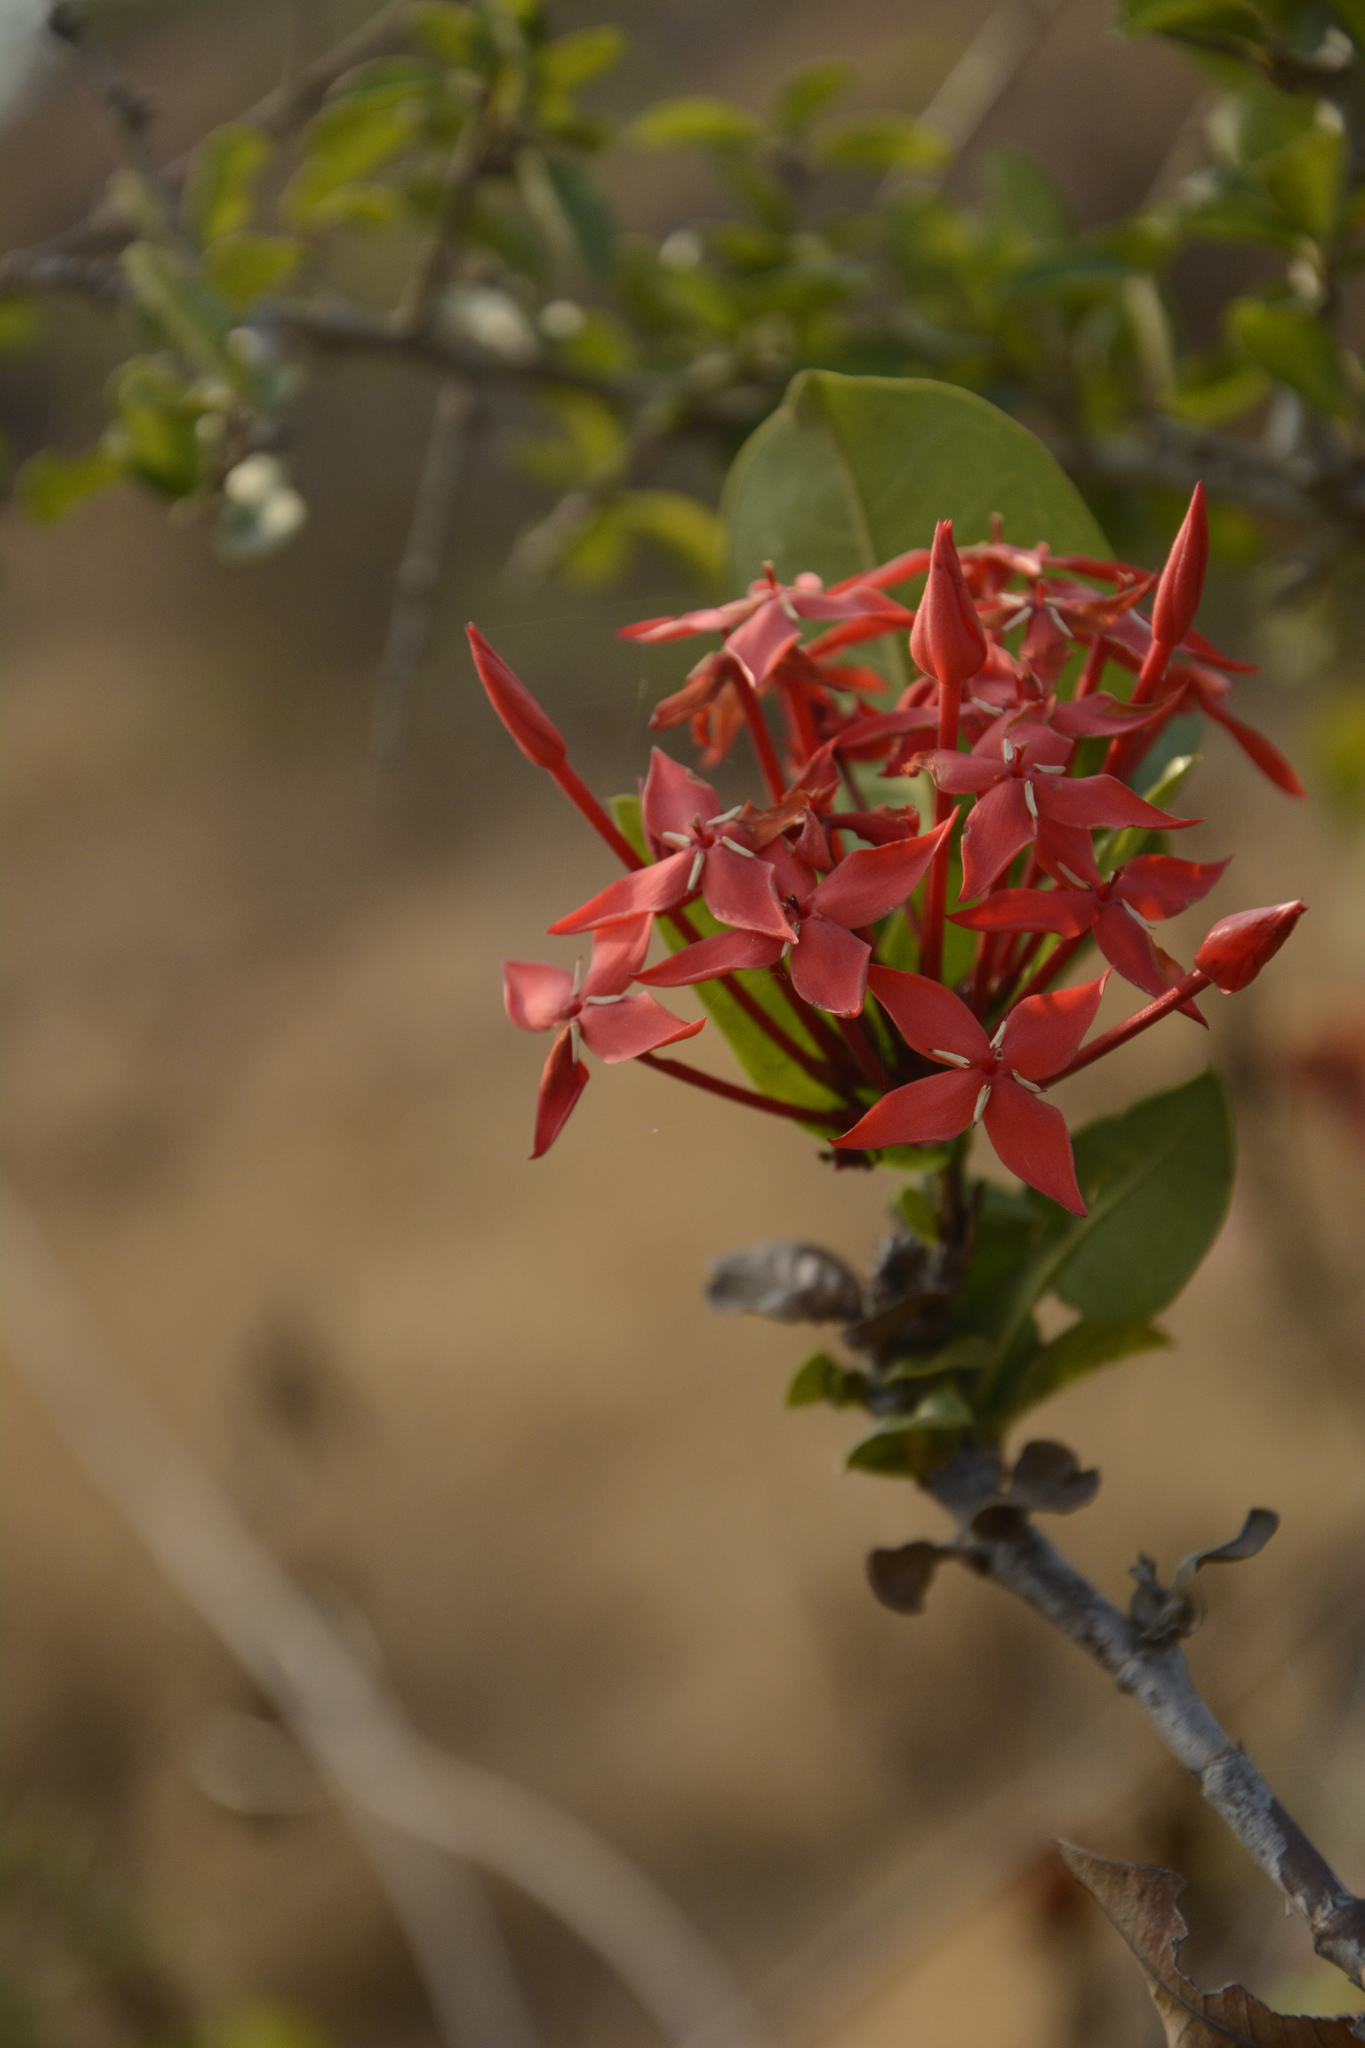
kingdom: Plantae
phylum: Tracheophyta
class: Magnoliopsida
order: Gentianales
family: Rubiaceae
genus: Ixora
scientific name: Ixora coccinea
